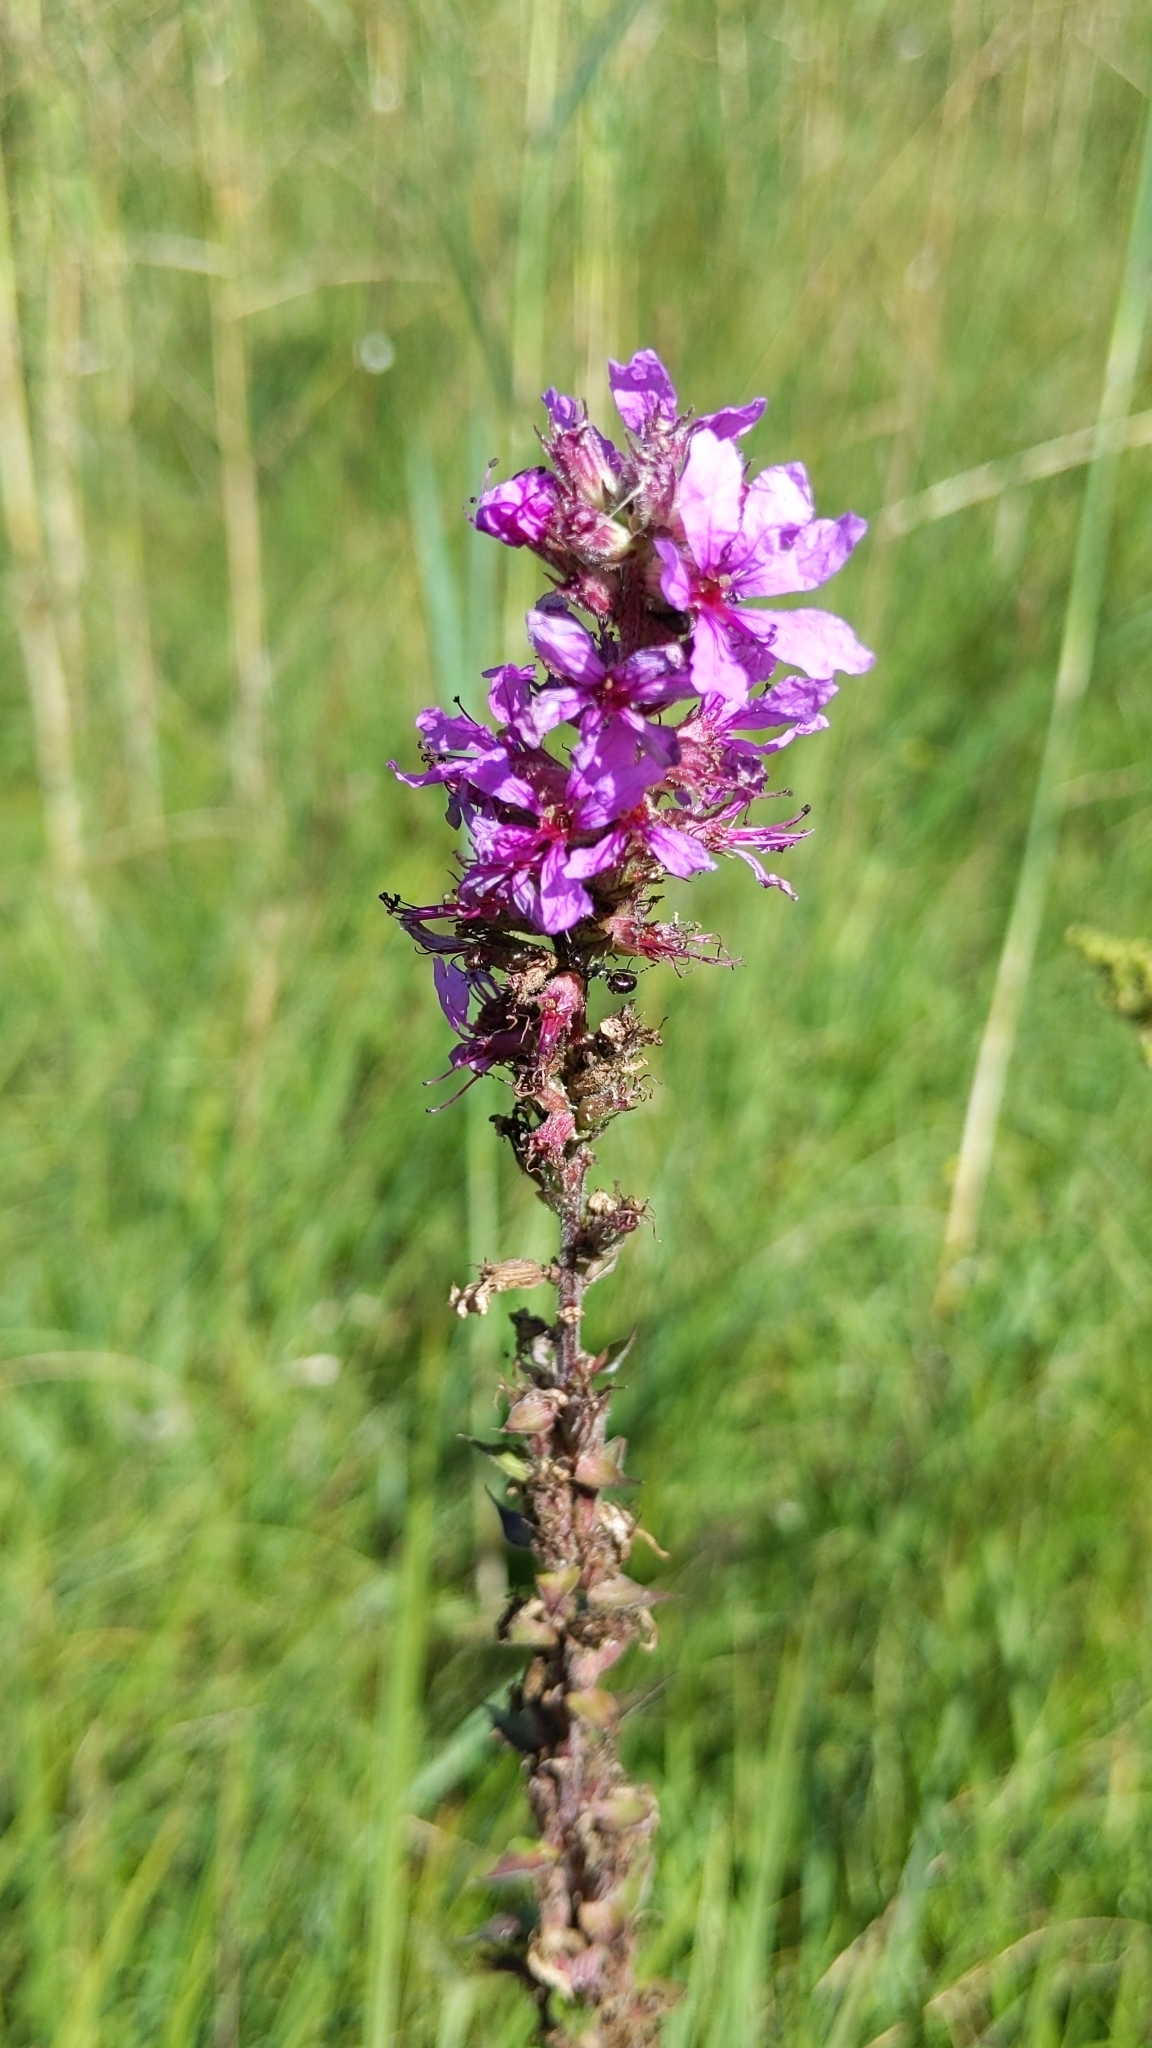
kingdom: Plantae
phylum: Tracheophyta
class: Magnoliopsida
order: Myrtales
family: Lythraceae
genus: Lythrum
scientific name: Lythrum salicaria
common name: Purple loosestrife
